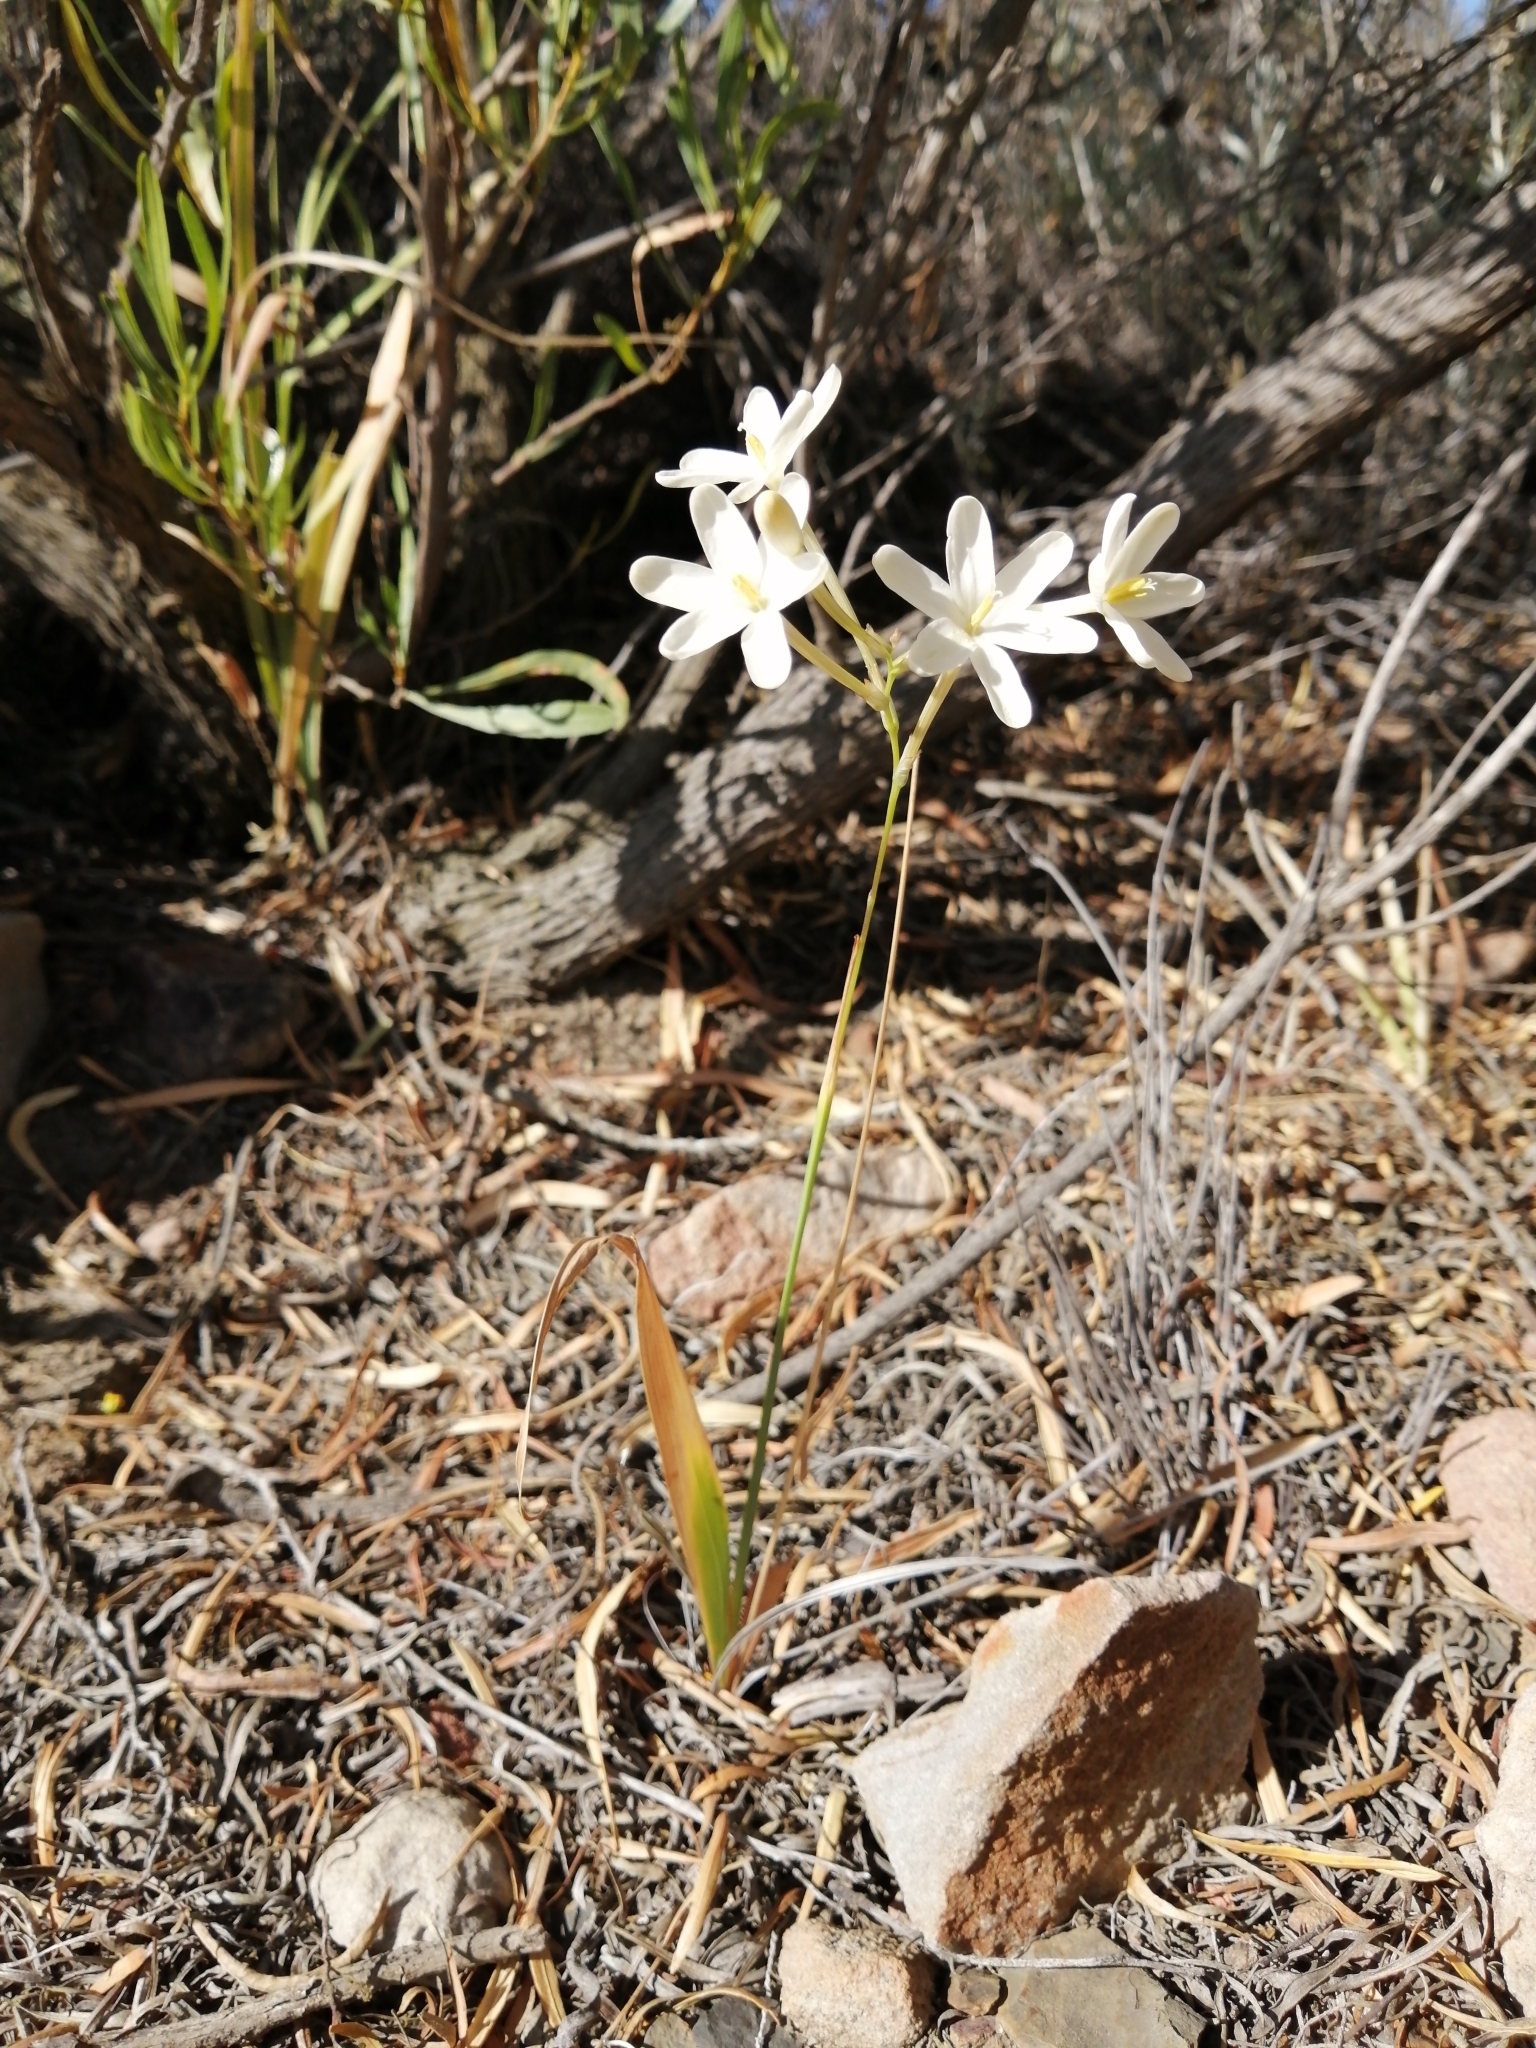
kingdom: Plantae
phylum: Tracheophyta
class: Liliopsida
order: Asparagales
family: Iridaceae
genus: Ixia
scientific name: Ixia paucifolia
